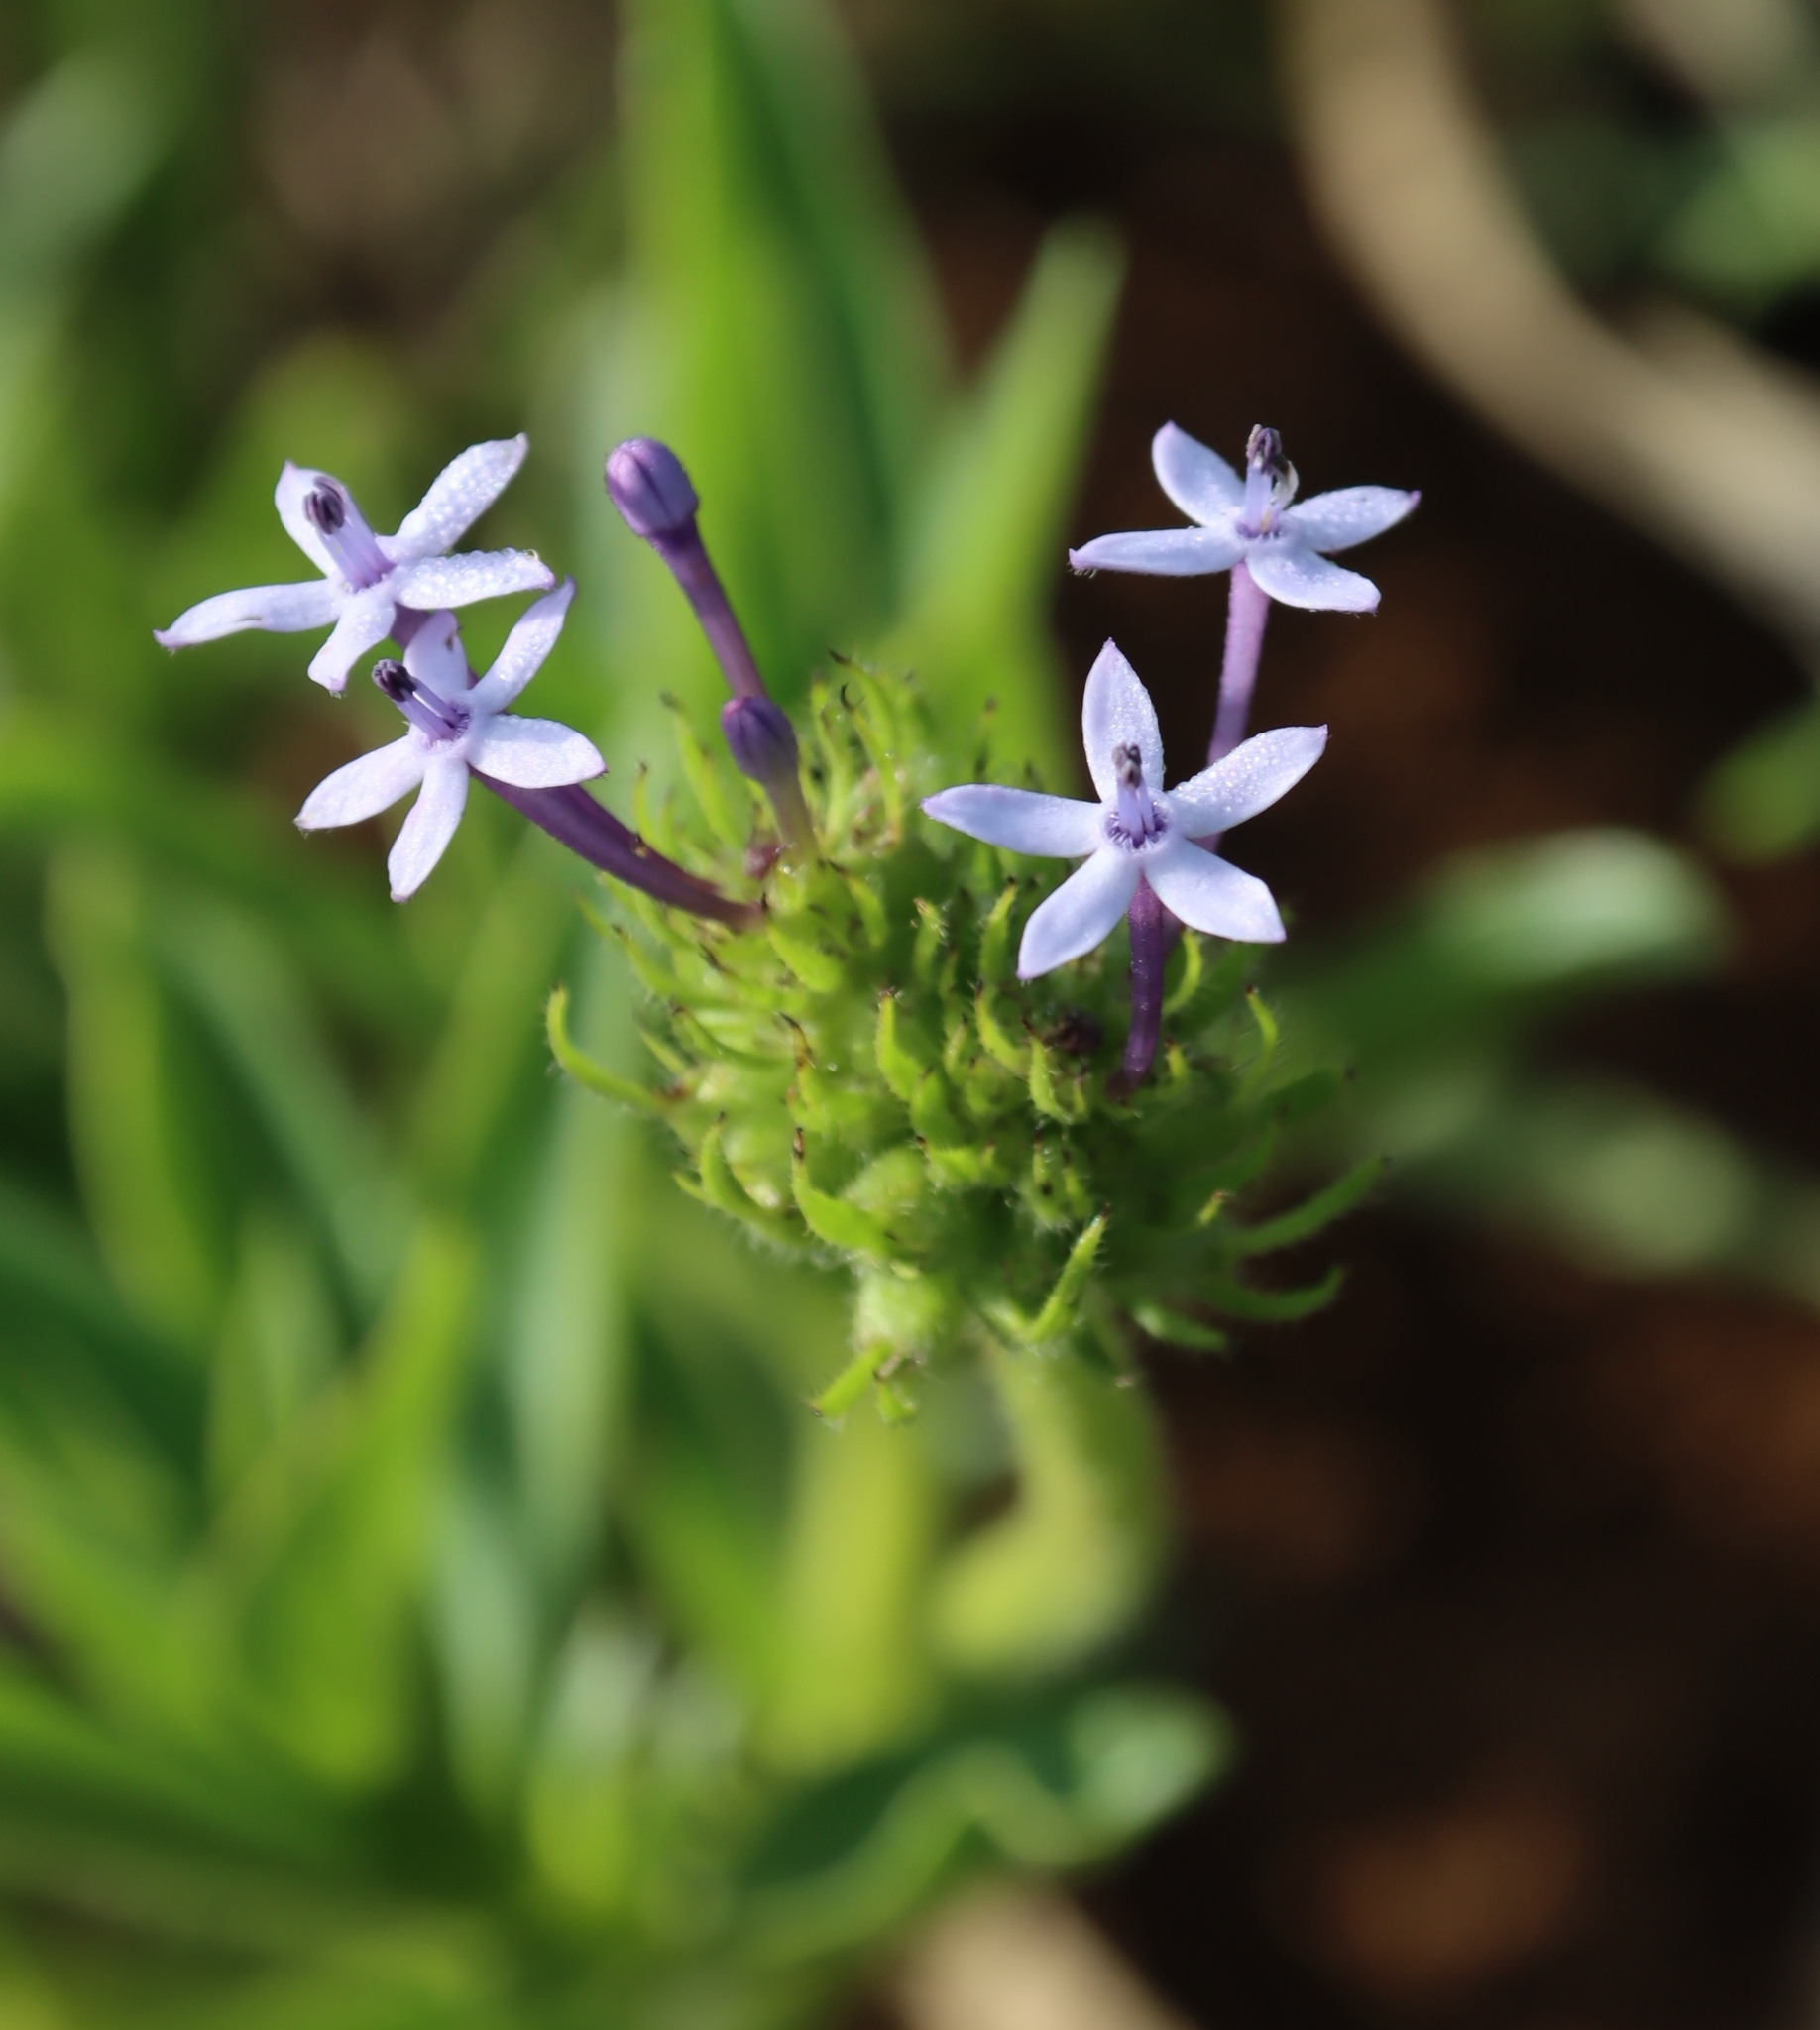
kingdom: Plantae
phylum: Tracheophyta
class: Magnoliopsida
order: Gentianales
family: Rubiaceae
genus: Pentanisia
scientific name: Pentanisia prunelloides
